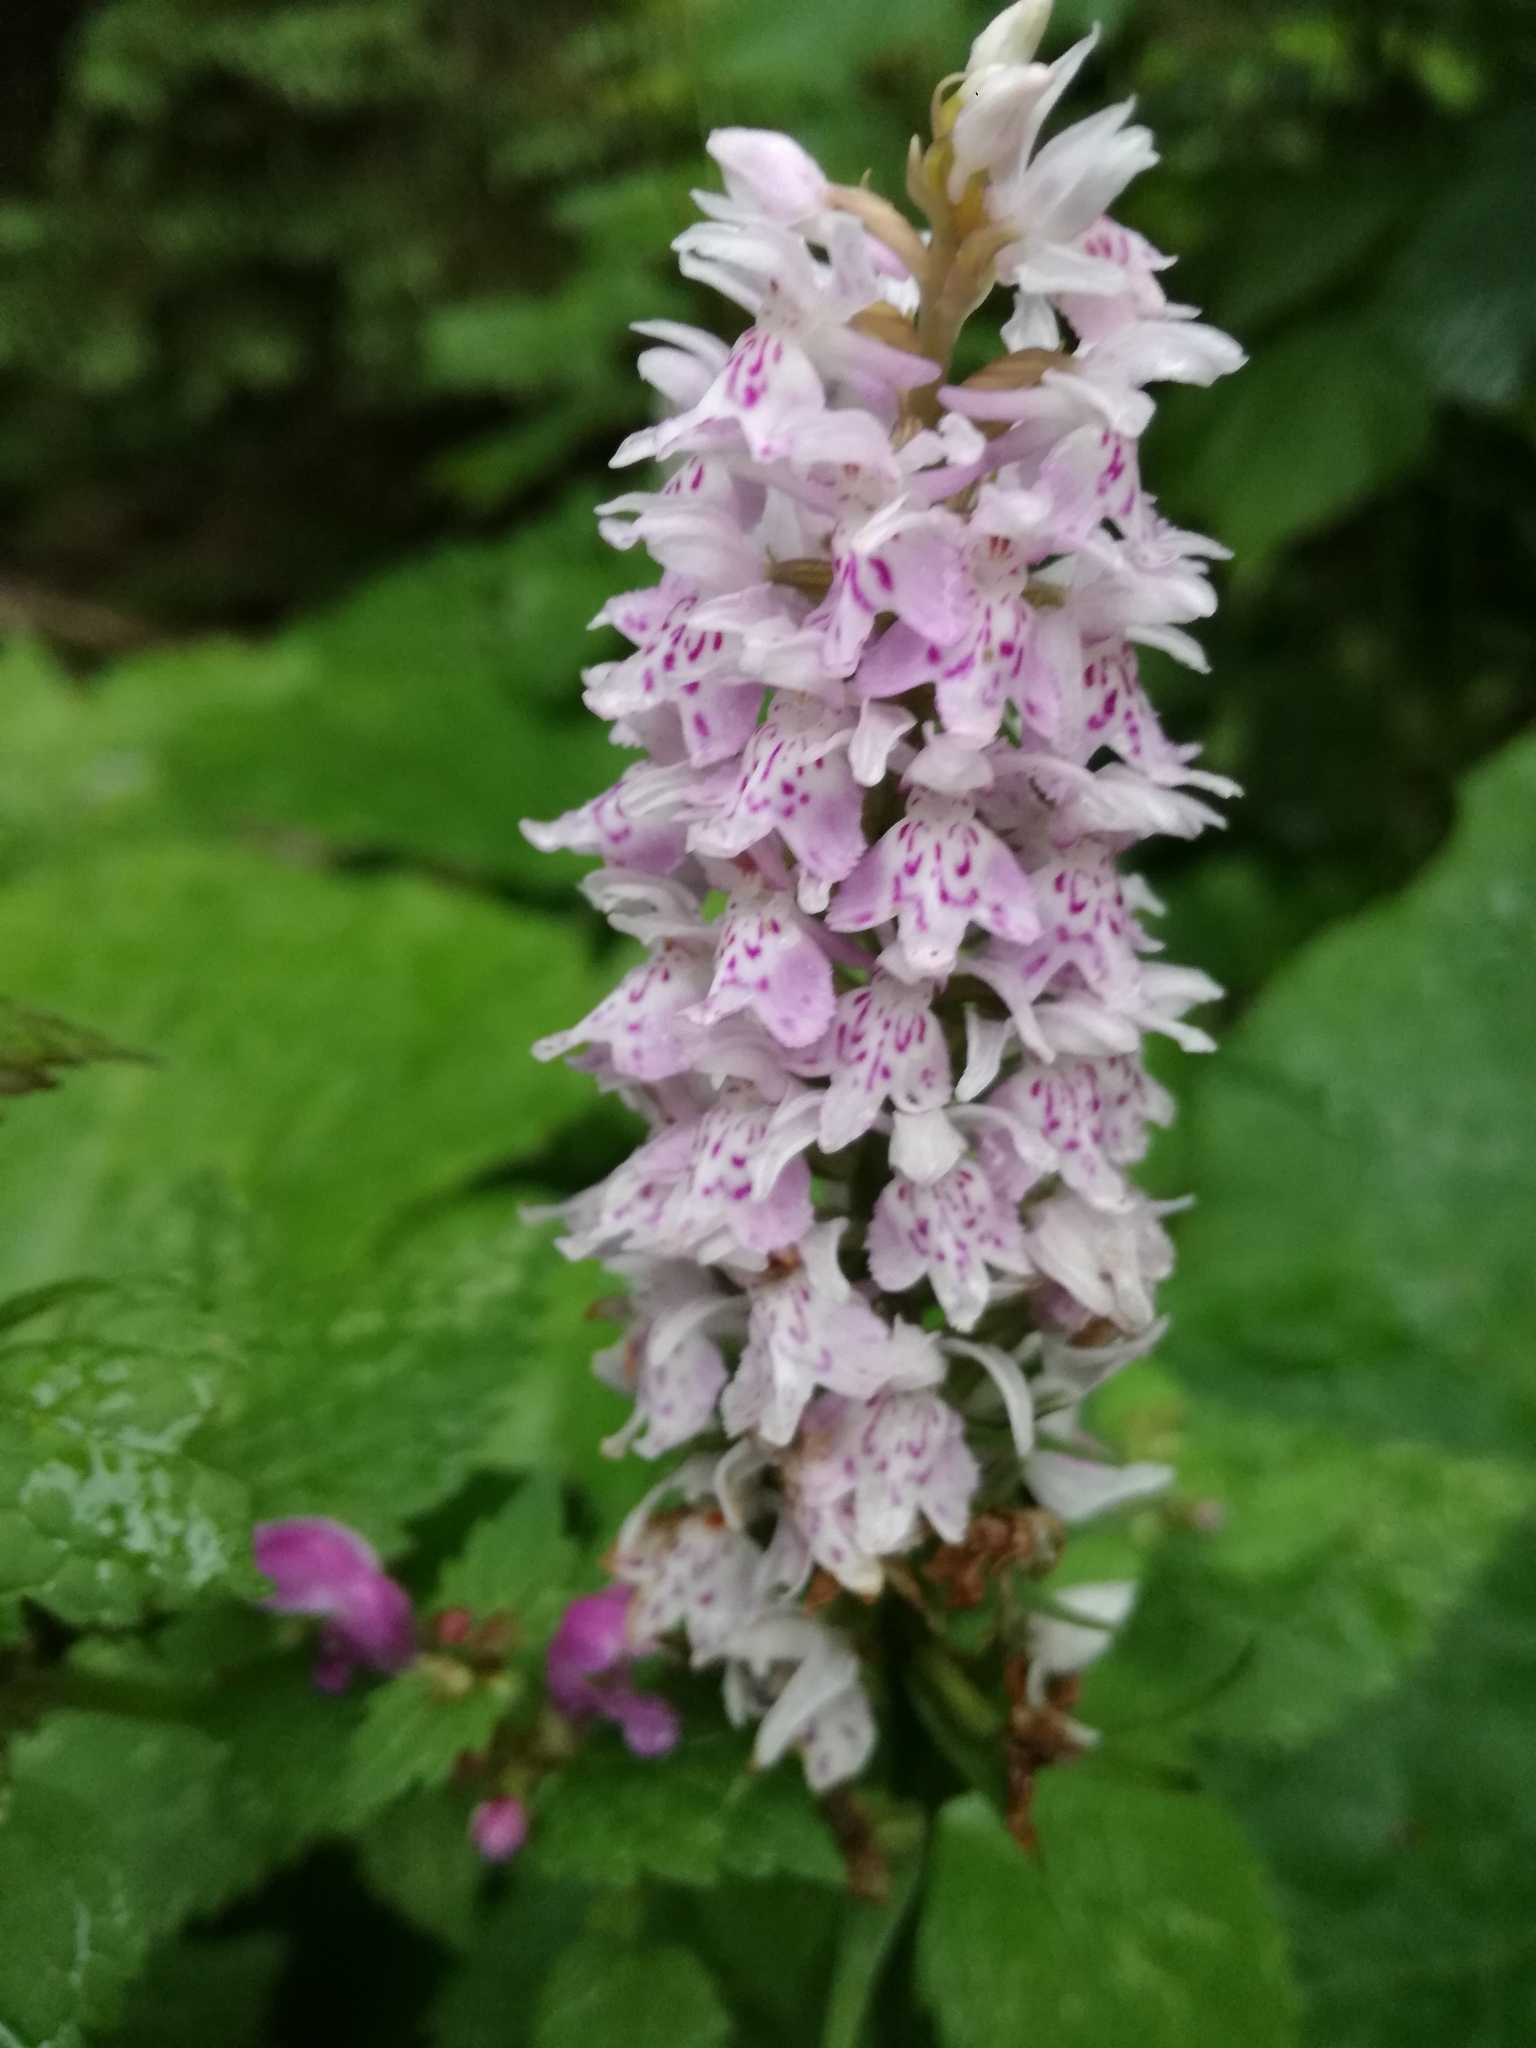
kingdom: Plantae
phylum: Tracheophyta
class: Liliopsida
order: Asparagales
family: Orchidaceae
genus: Dactylorhiza
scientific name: Dactylorhiza maculata
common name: Heath spotted-orchid
